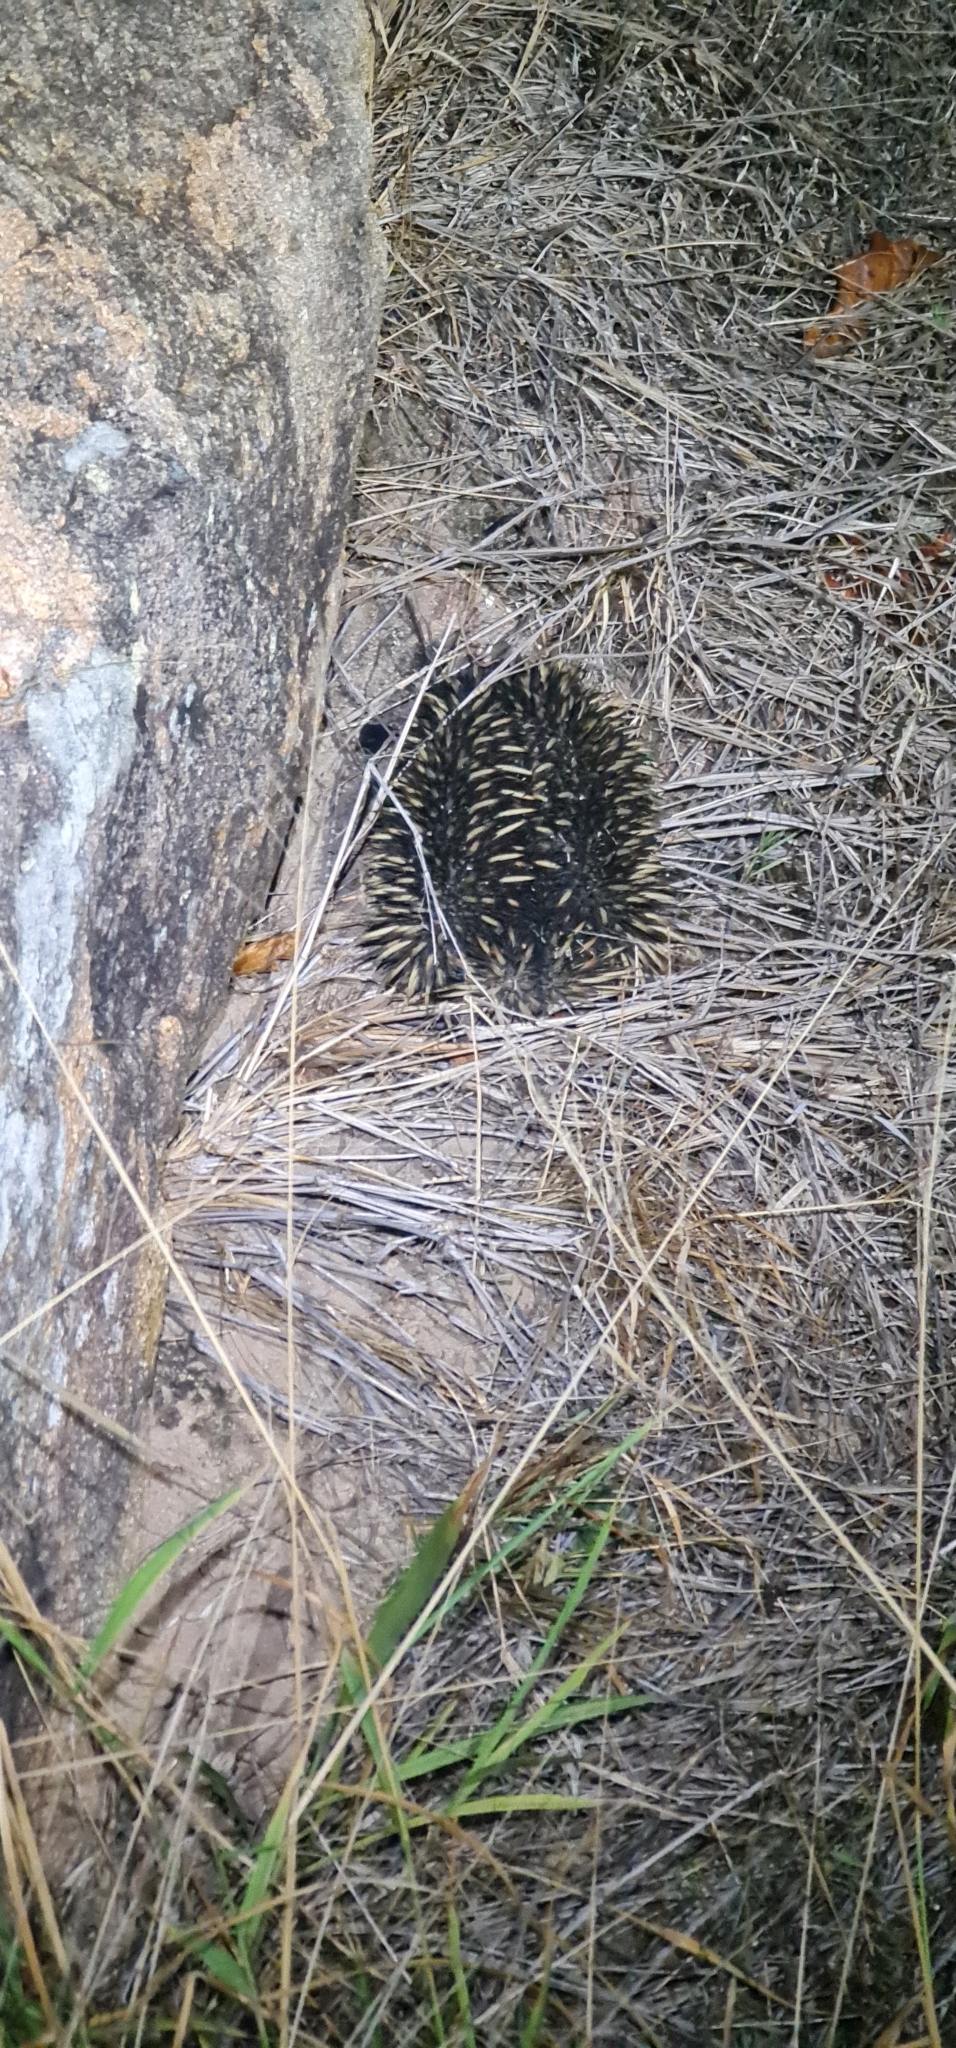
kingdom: Animalia
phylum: Chordata
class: Mammalia
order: Monotremata
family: Tachyglossidae
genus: Tachyglossus
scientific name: Tachyglossus aculeatus
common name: Short-beaked echidna
